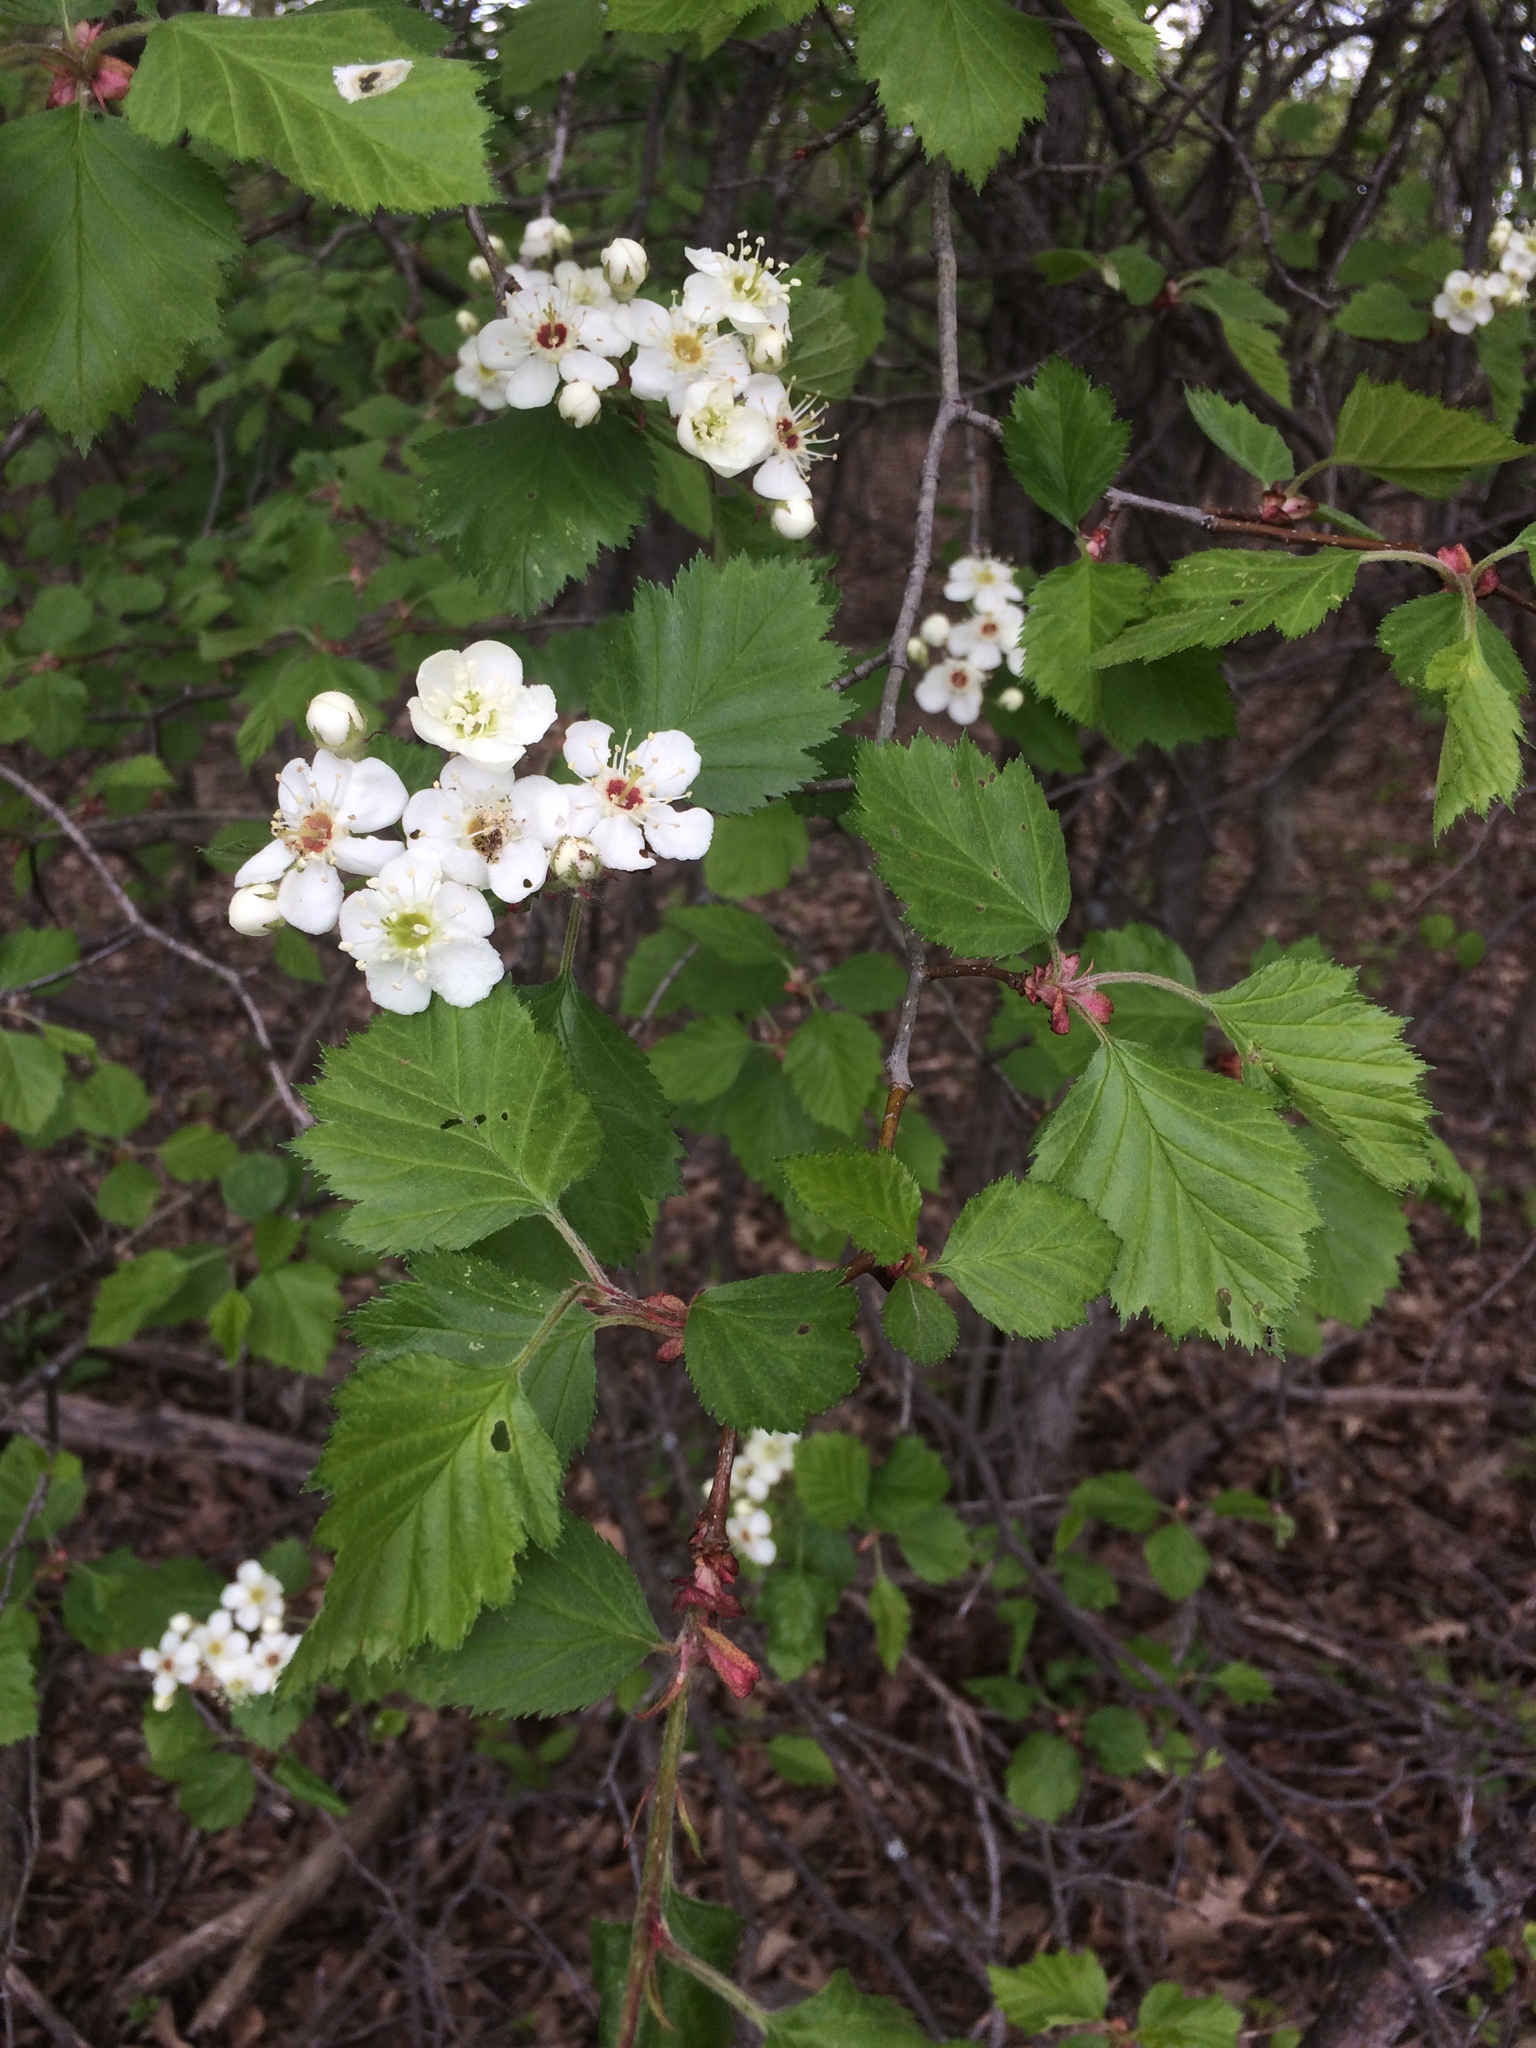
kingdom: Plantae
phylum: Tracheophyta
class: Magnoliopsida
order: Rosales
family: Rosaceae
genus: Crataegus
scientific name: Crataegus submollis
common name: Hairy cockspurthorn
